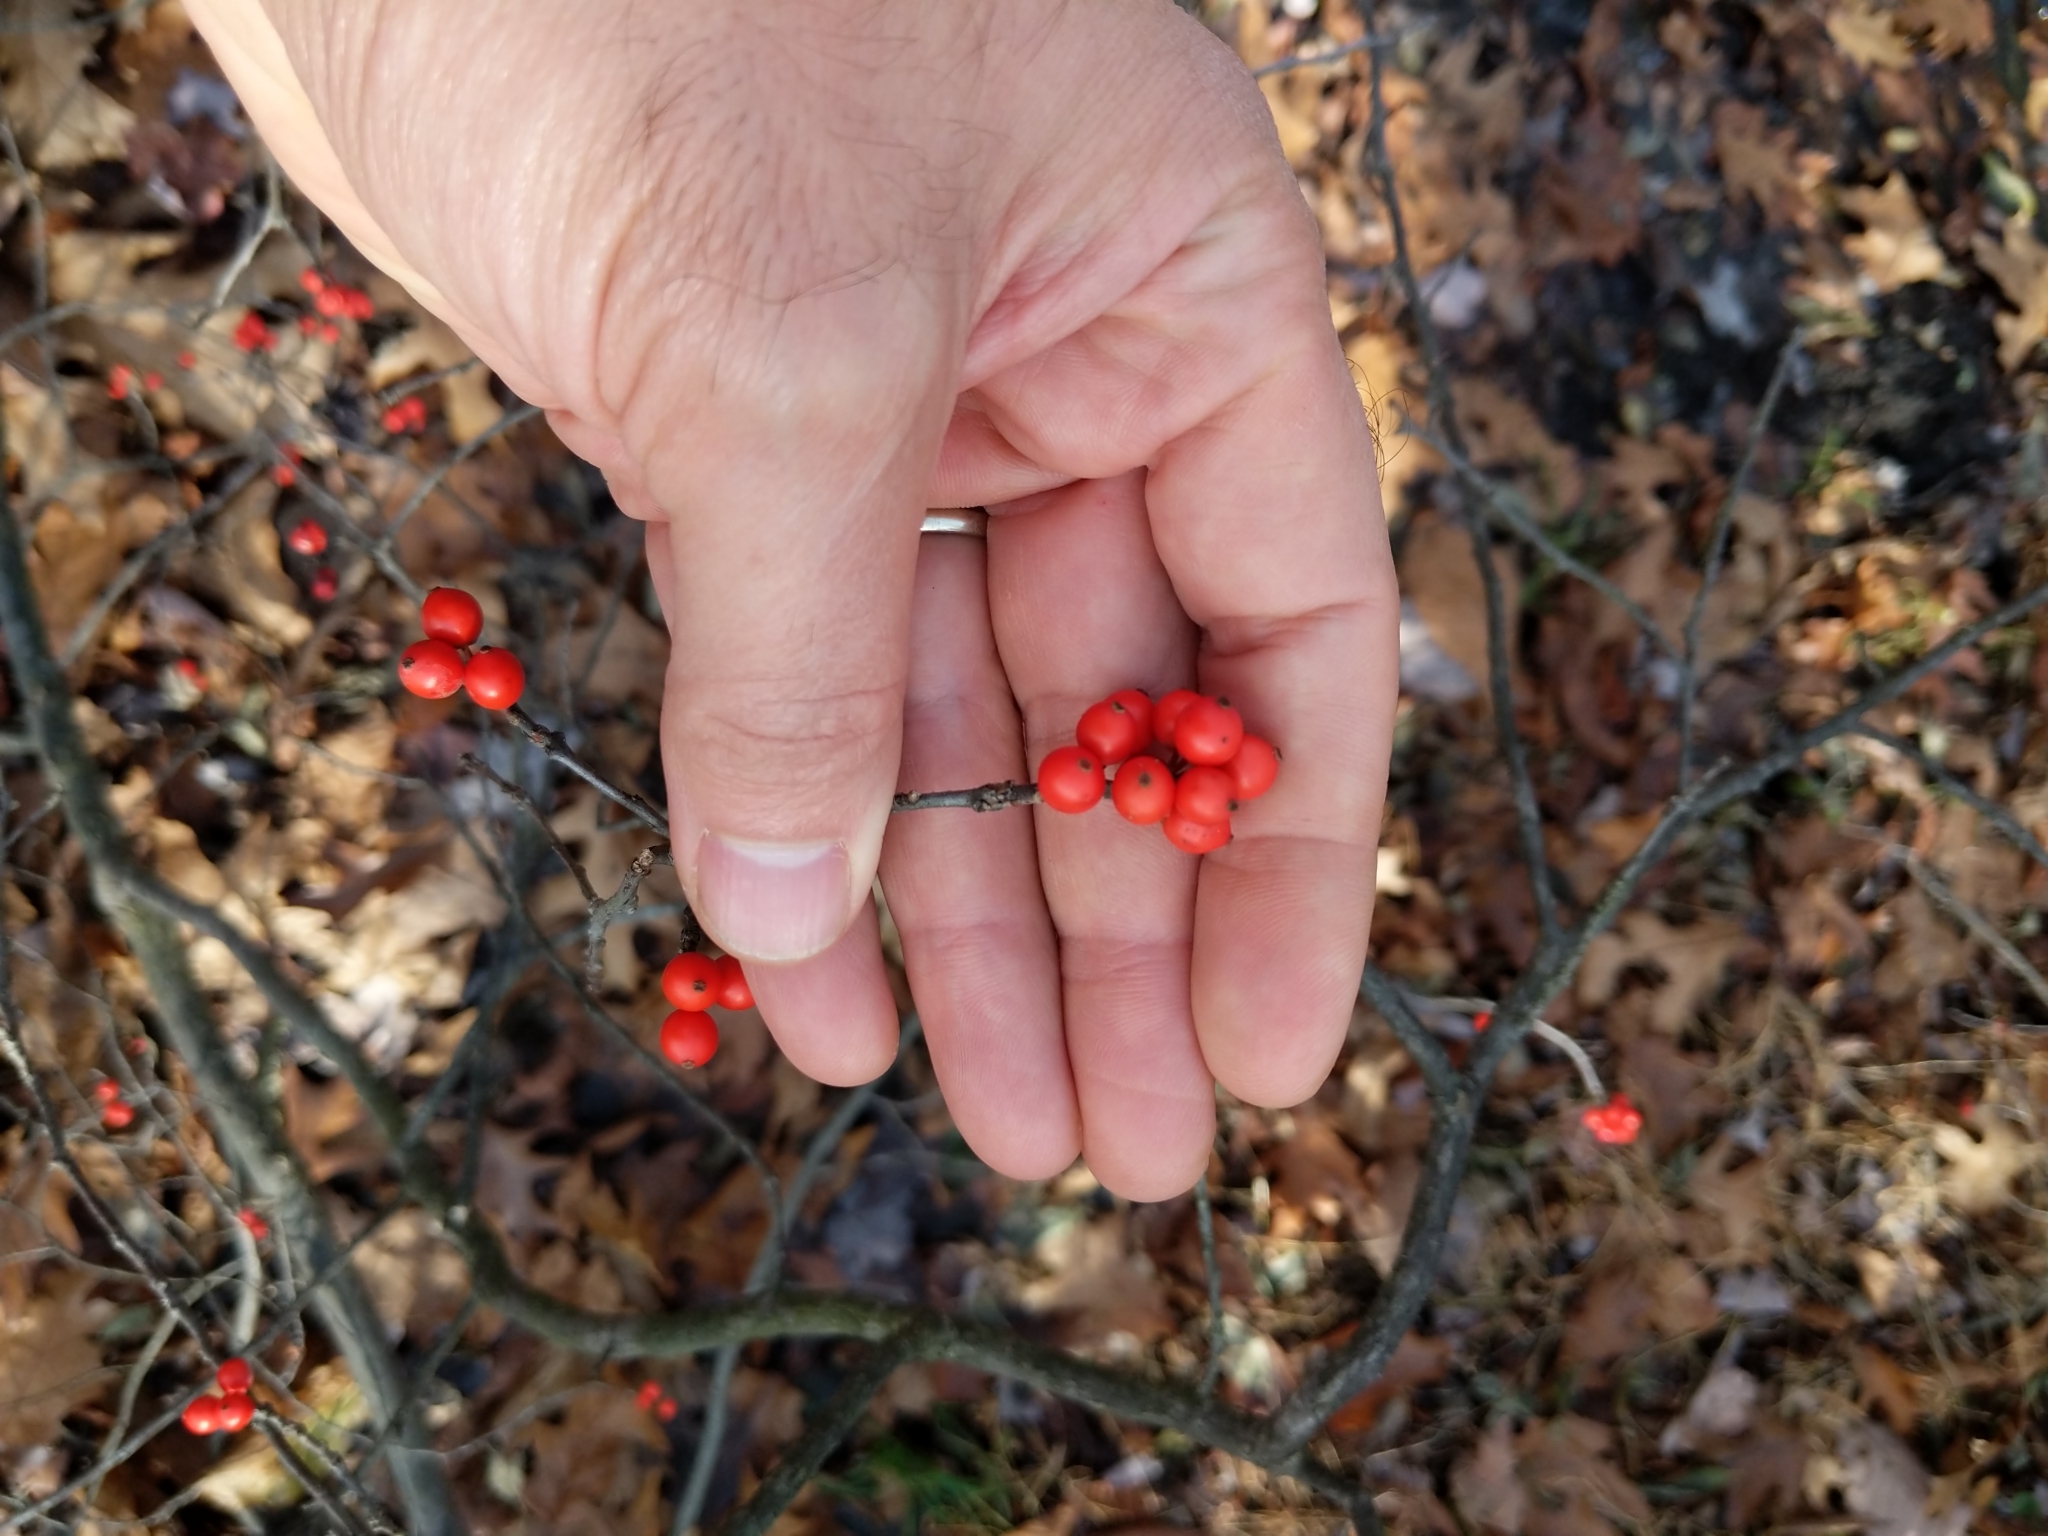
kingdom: Plantae
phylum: Tracheophyta
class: Magnoliopsida
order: Aquifoliales
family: Aquifoliaceae
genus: Ilex
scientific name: Ilex verticillata
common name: Virginia winterberry
